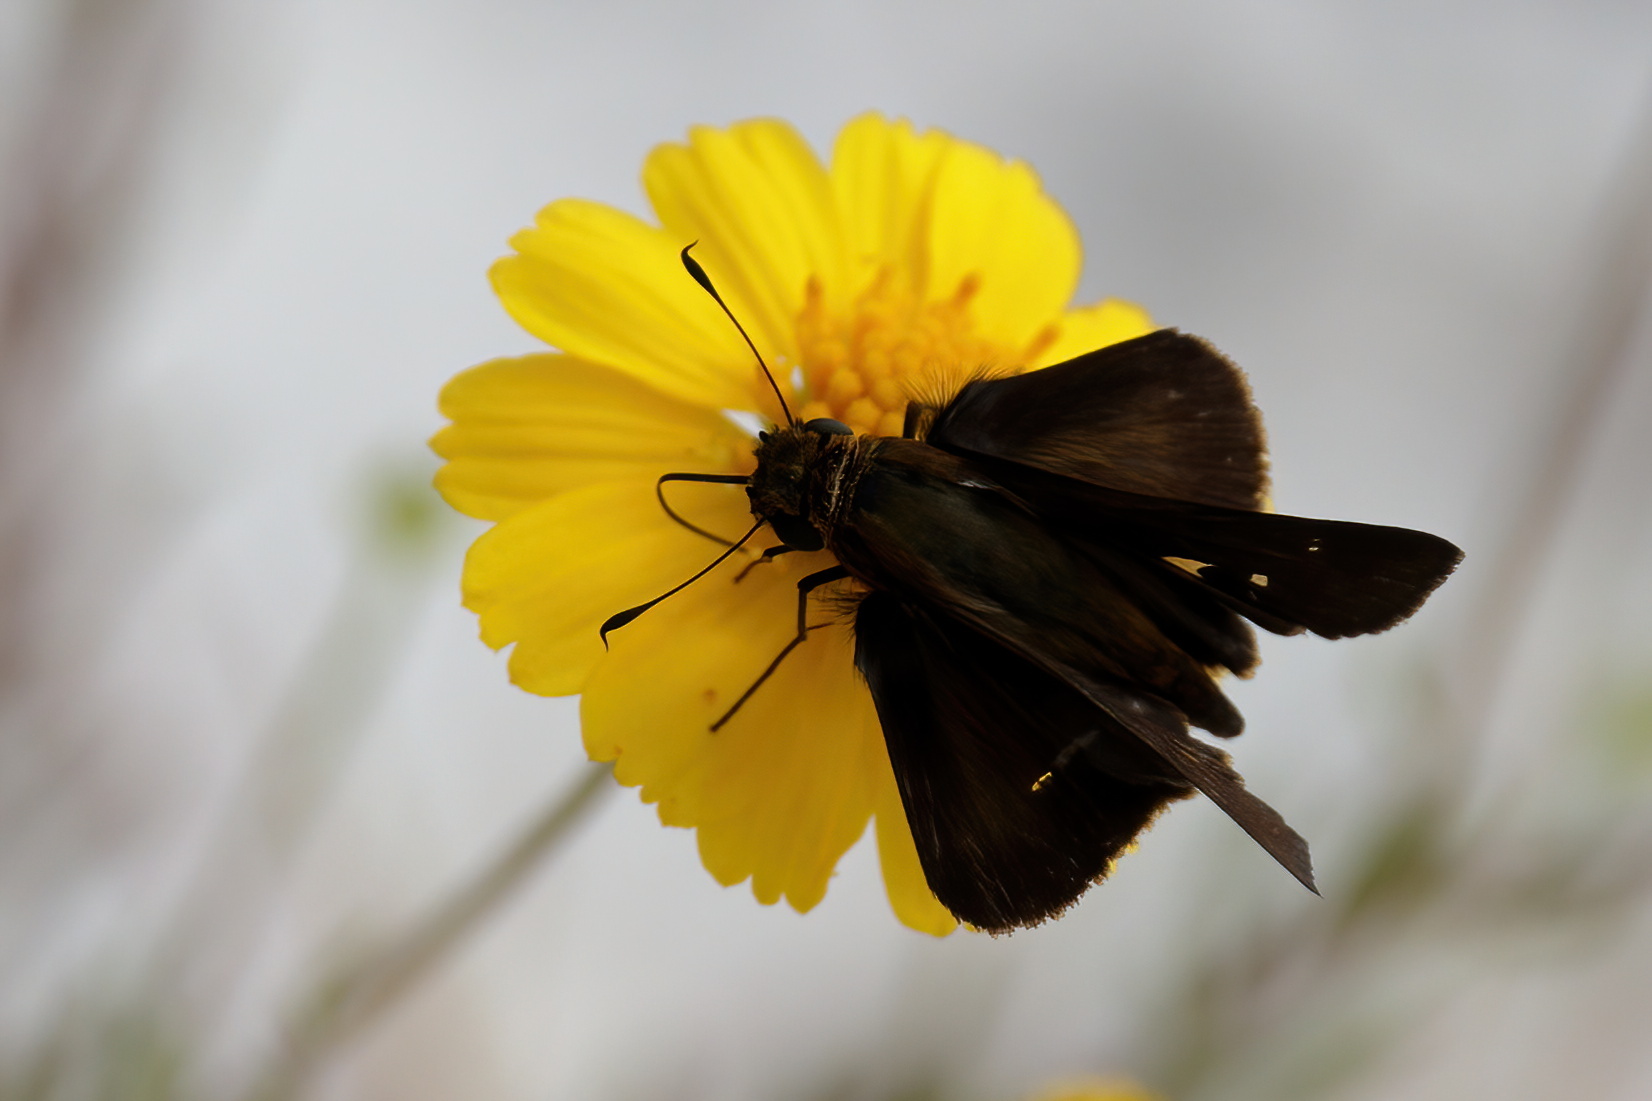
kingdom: Animalia
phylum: Arthropoda
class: Insecta
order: Lepidoptera
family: Hesperiidae
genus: Panoquina
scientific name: Panoquina ocola
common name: Ocola skipper
